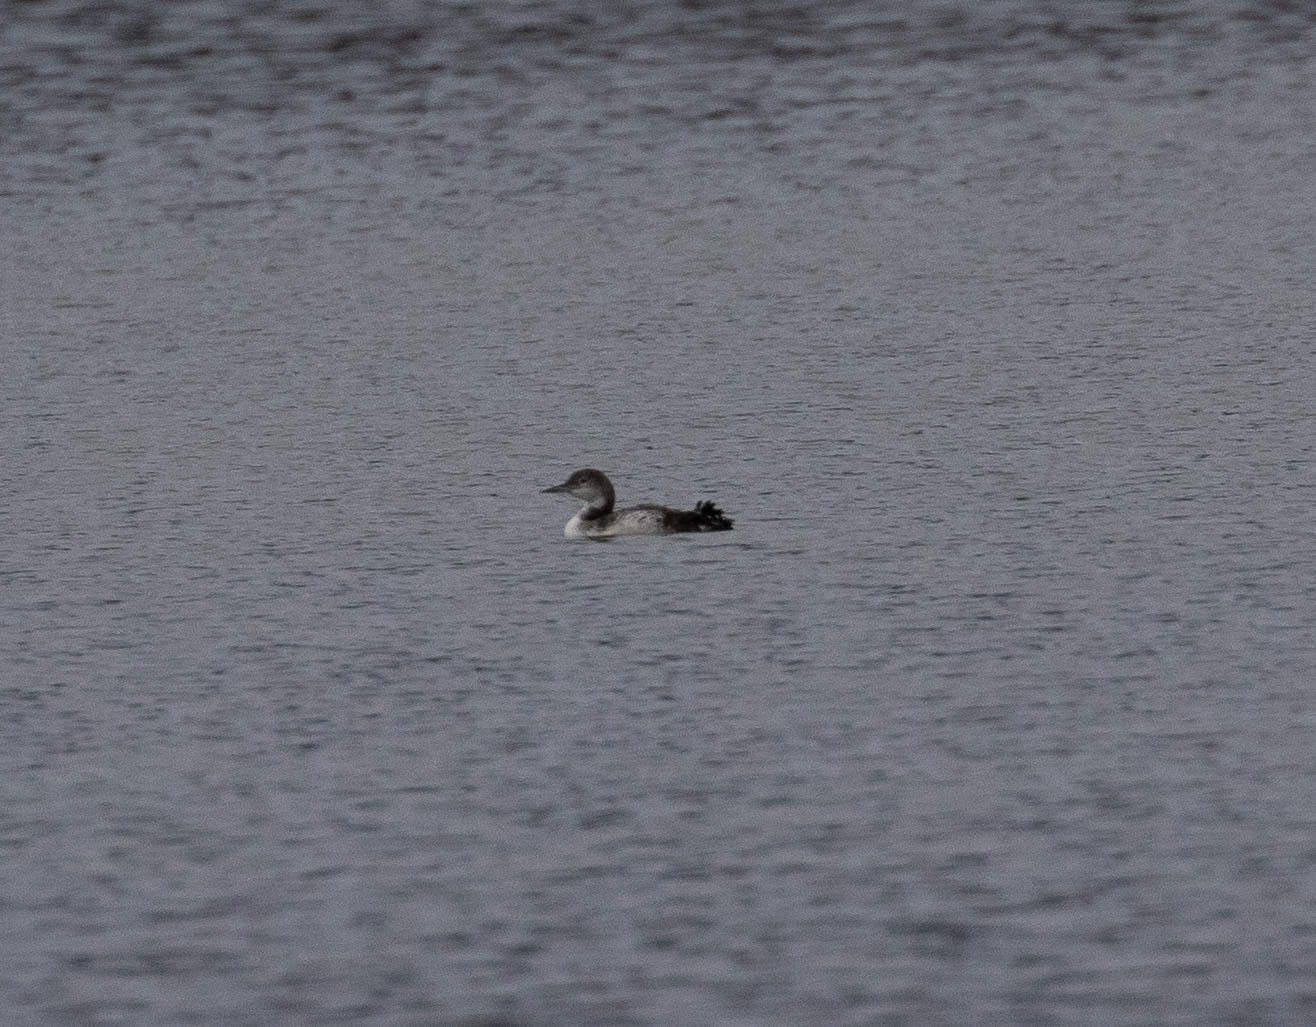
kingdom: Animalia
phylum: Chordata
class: Aves
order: Gaviiformes
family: Gaviidae
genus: Gavia
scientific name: Gavia immer
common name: Common loon
